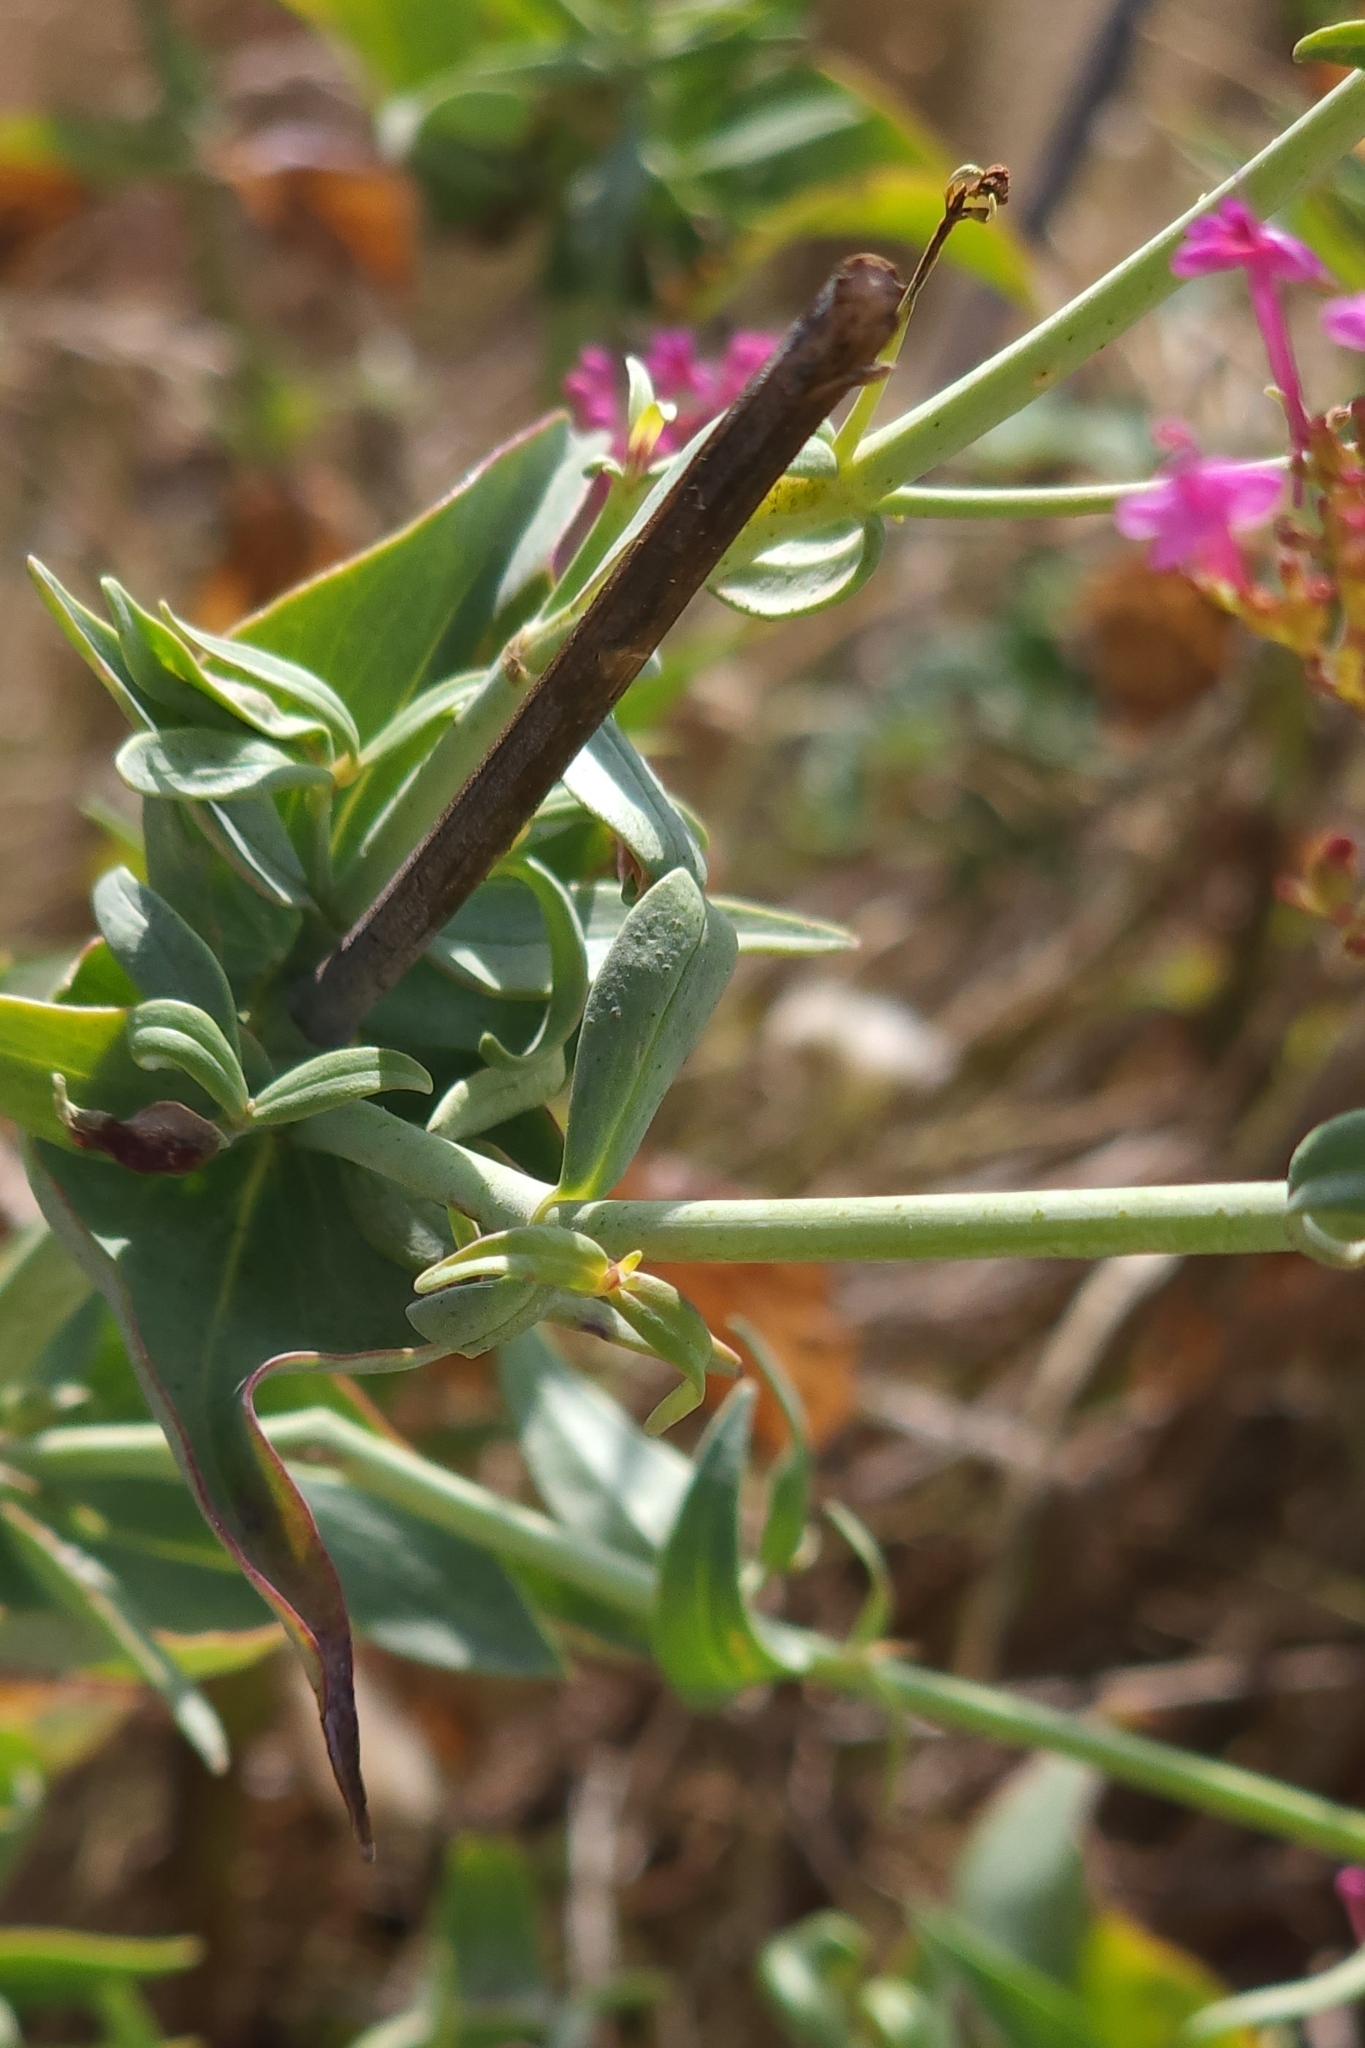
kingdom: Plantae
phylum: Tracheophyta
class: Magnoliopsida
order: Dipsacales
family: Caprifoliaceae
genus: Centranthus
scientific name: Centranthus ruber
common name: Red valerian
